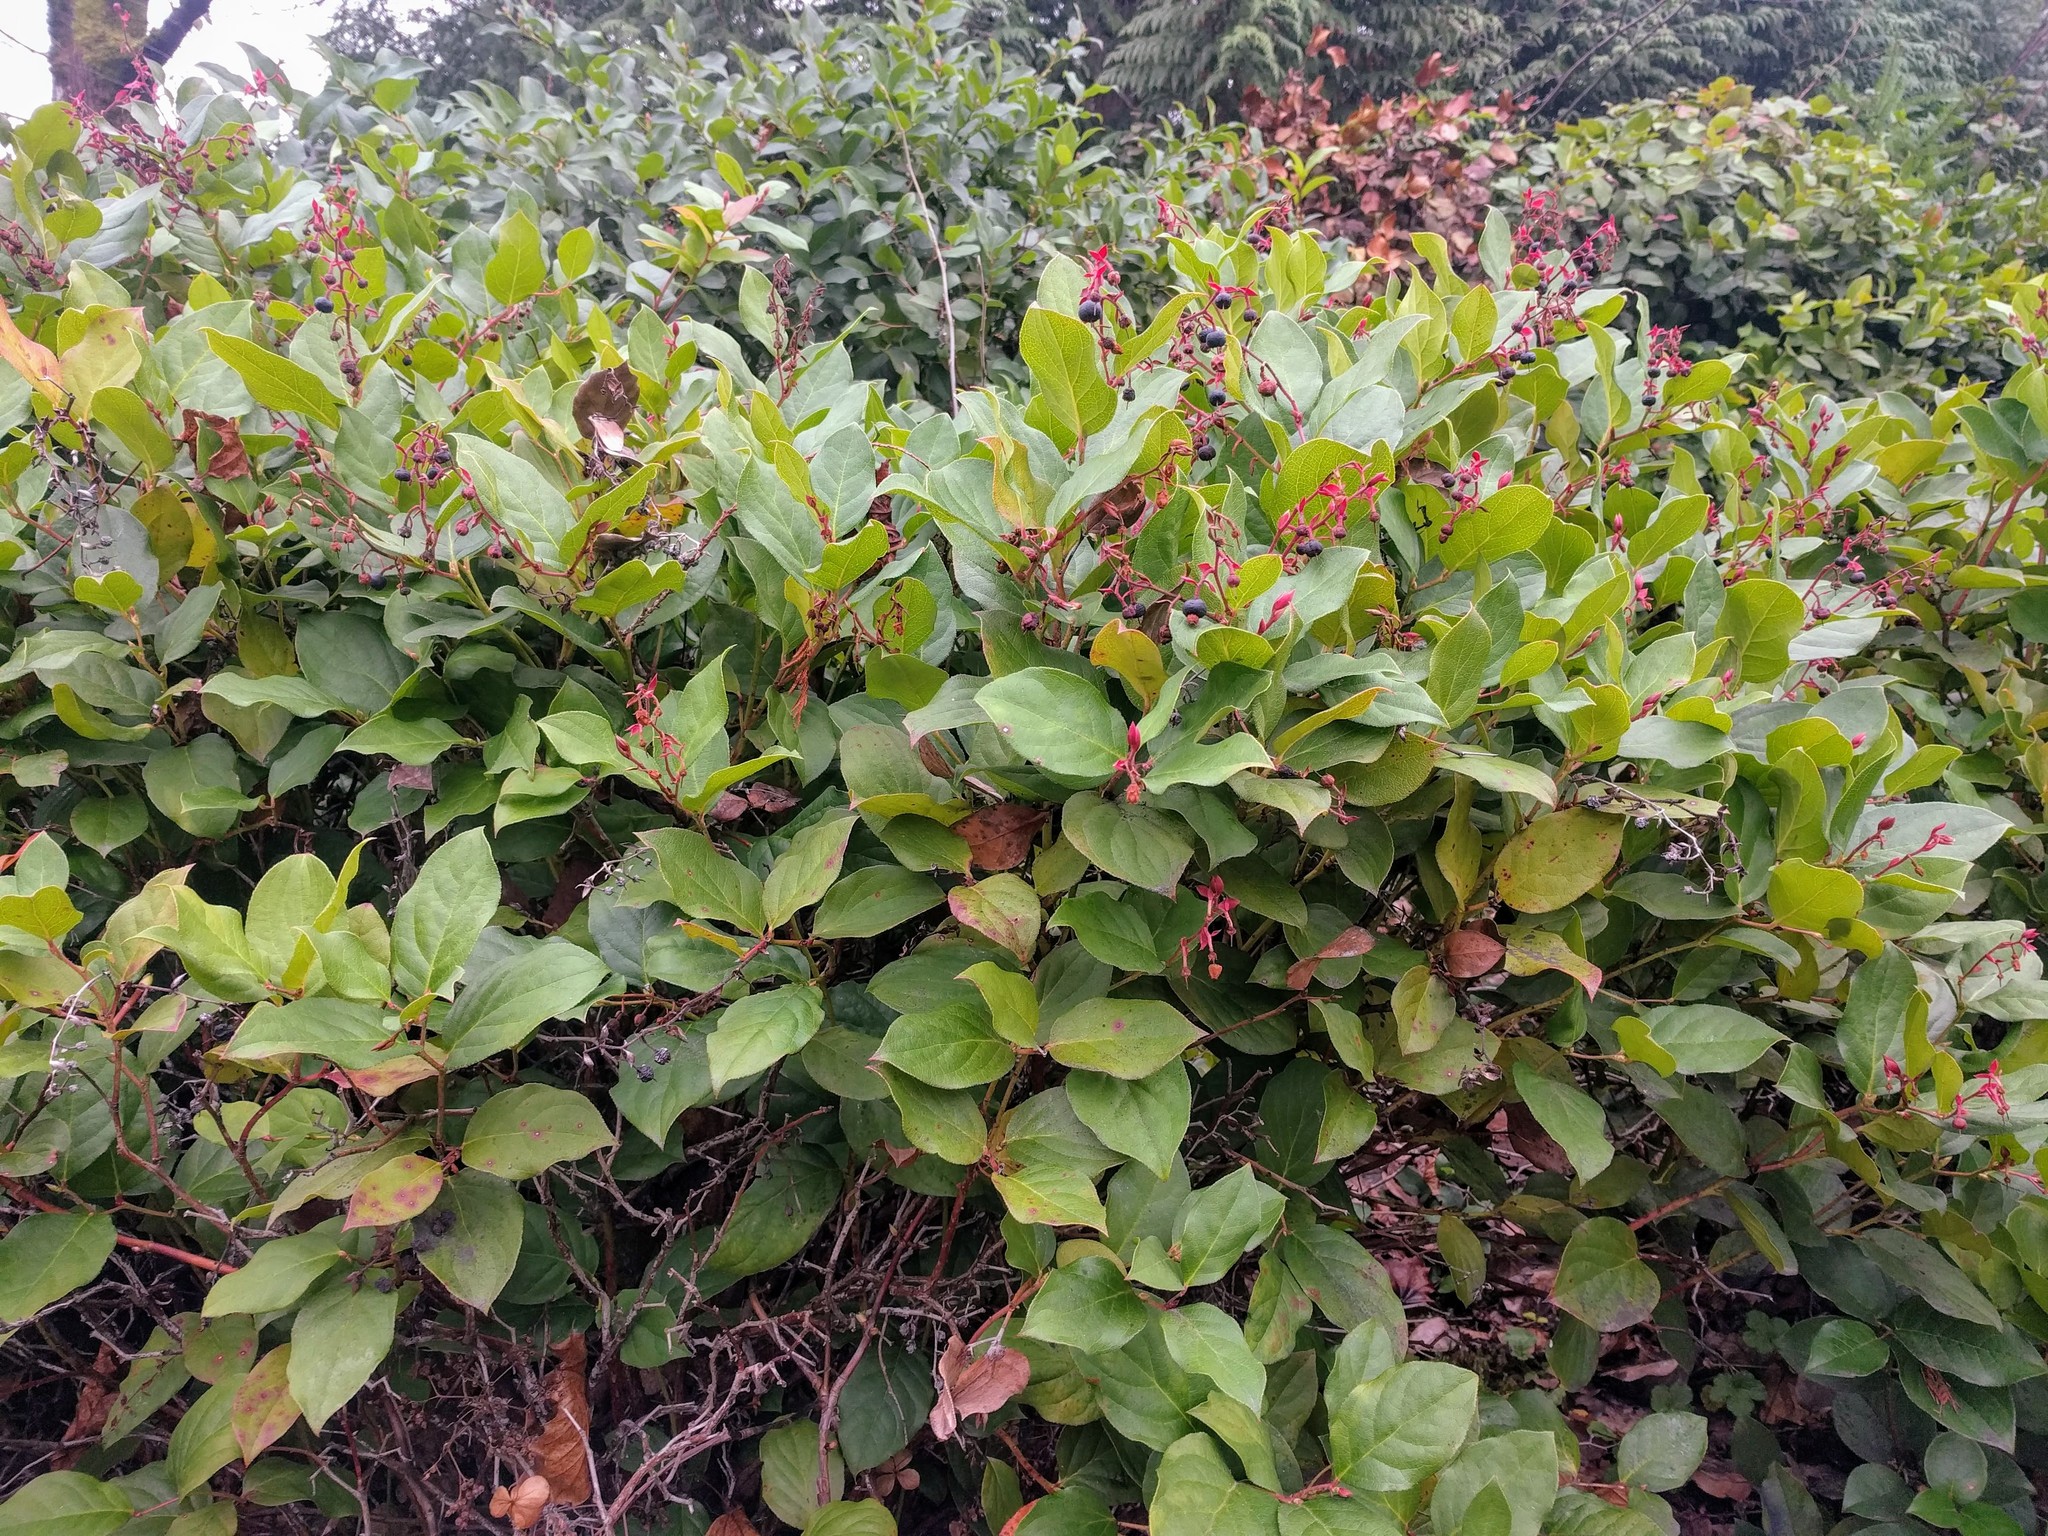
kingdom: Plantae
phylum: Tracheophyta
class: Magnoliopsida
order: Ericales
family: Ericaceae
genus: Gaultheria
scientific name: Gaultheria shallon
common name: Shallon
